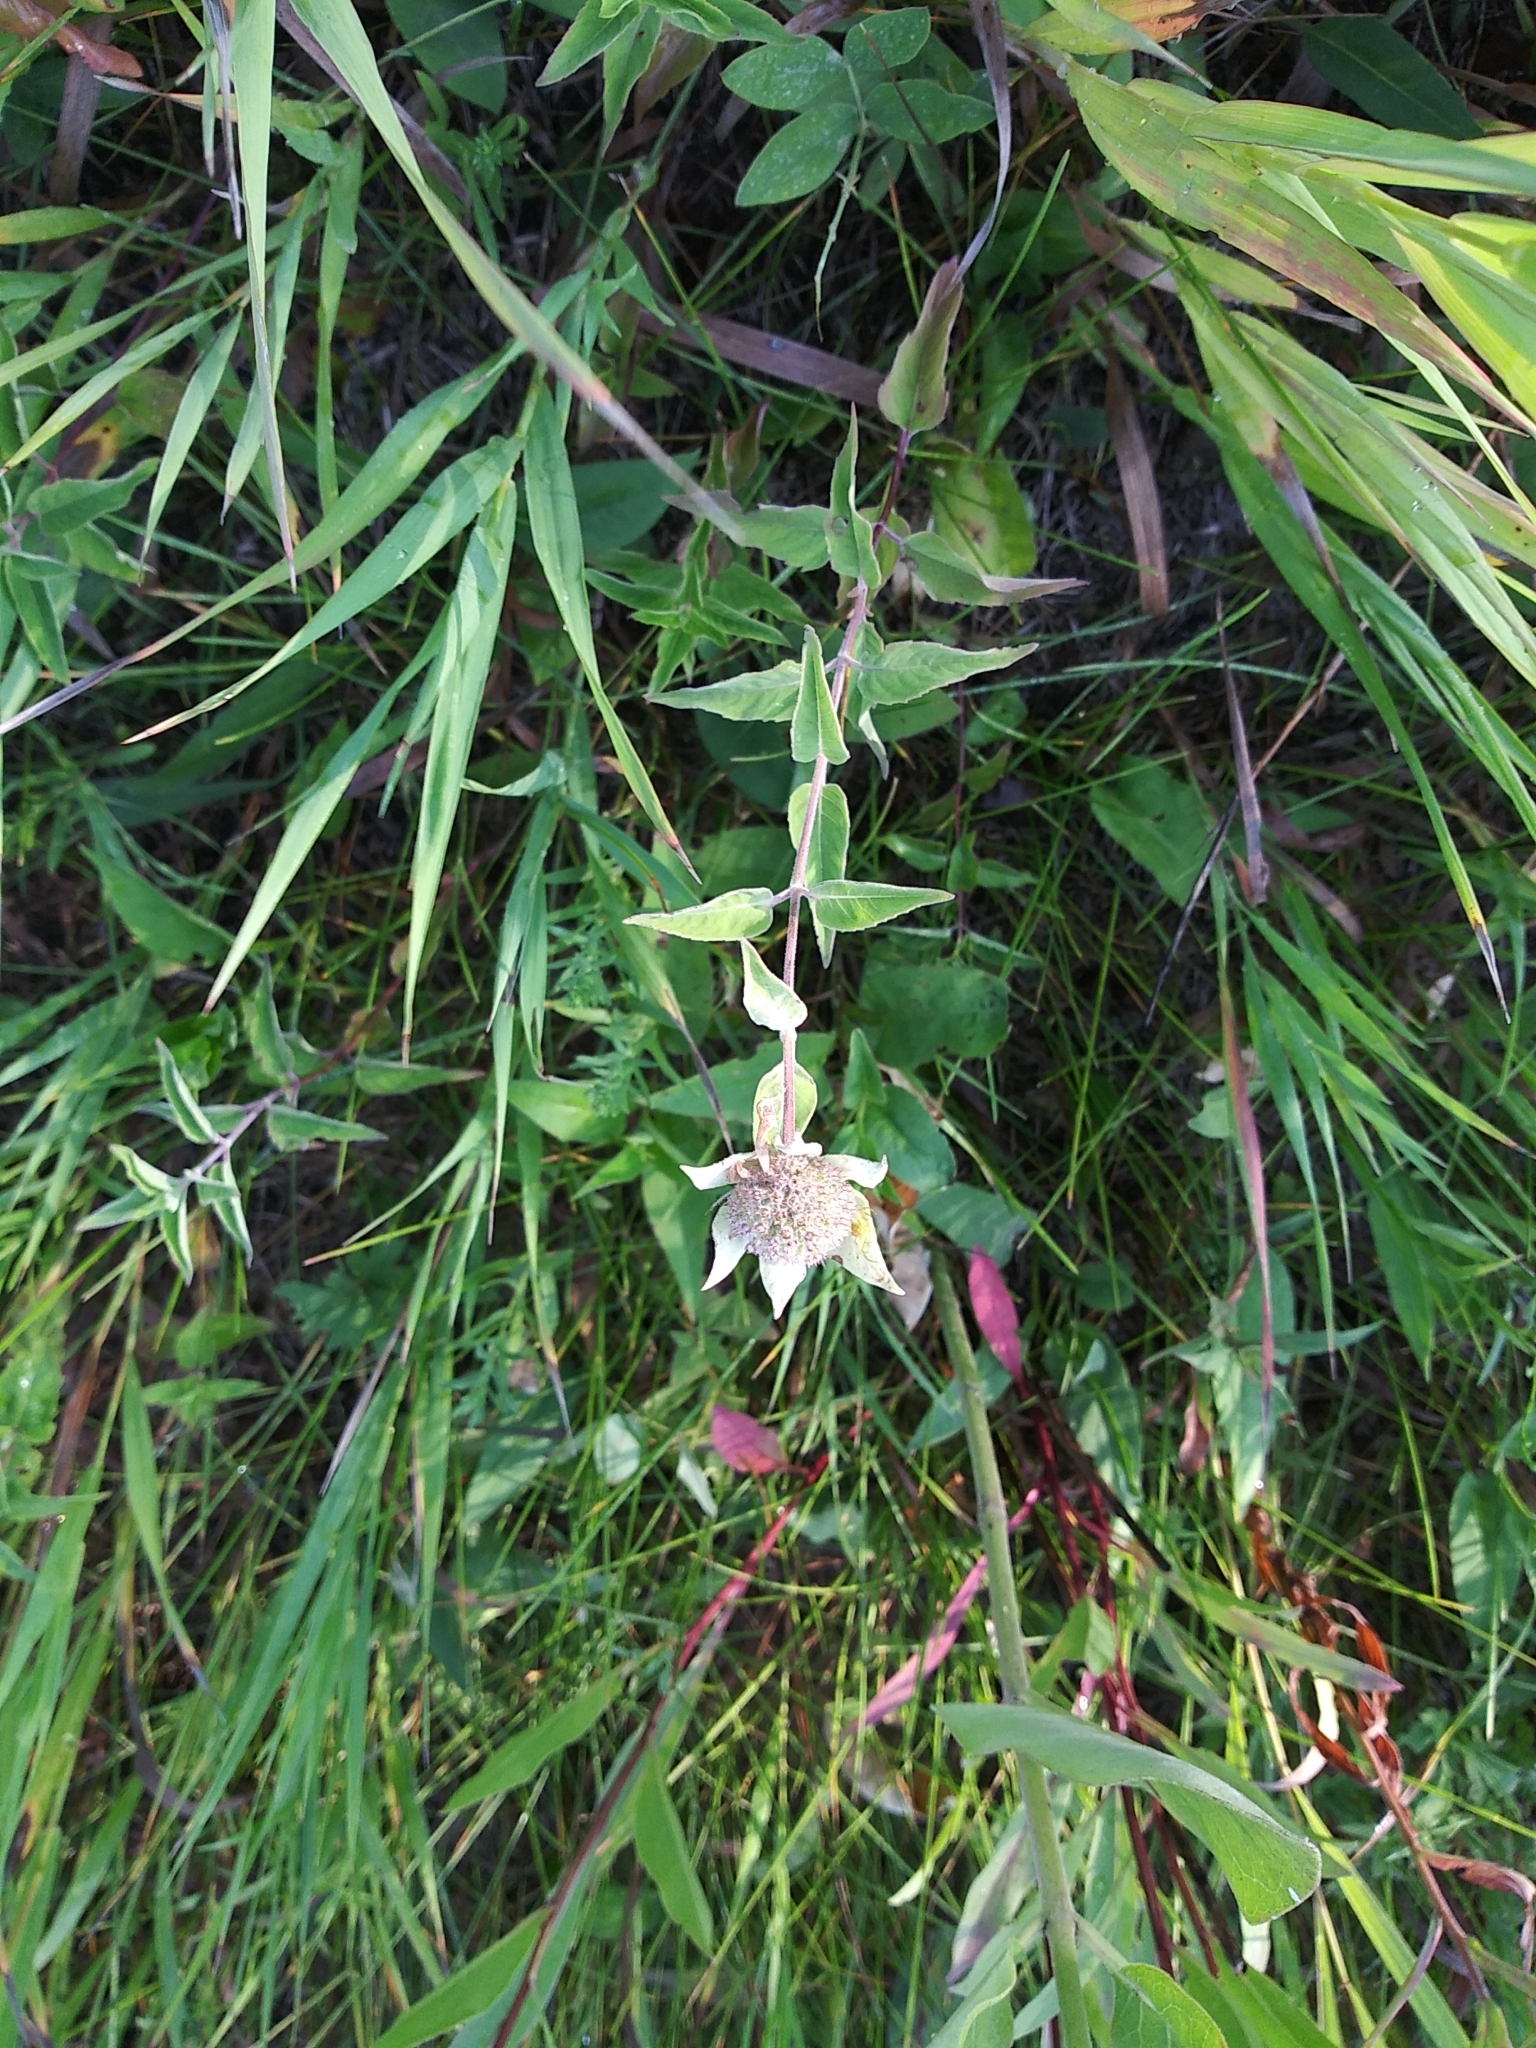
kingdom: Plantae
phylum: Tracheophyta
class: Magnoliopsida
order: Lamiales
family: Lamiaceae
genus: Monarda
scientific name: Monarda fistulosa
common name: Purple beebalm
